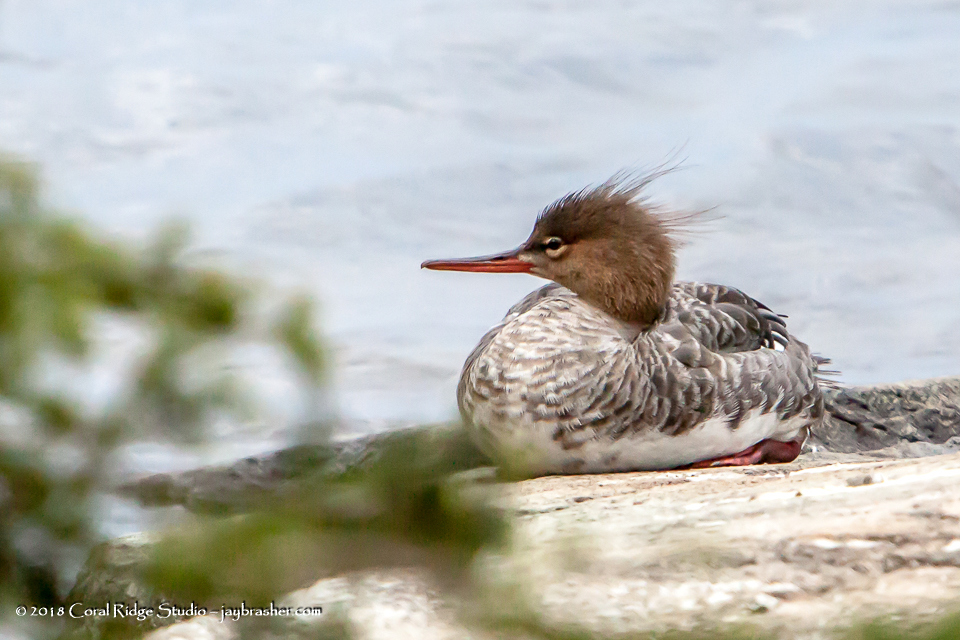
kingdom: Animalia
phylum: Chordata
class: Aves
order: Anseriformes
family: Anatidae
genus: Mergus
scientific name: Mergus serrator
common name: Red-breasted merganser
